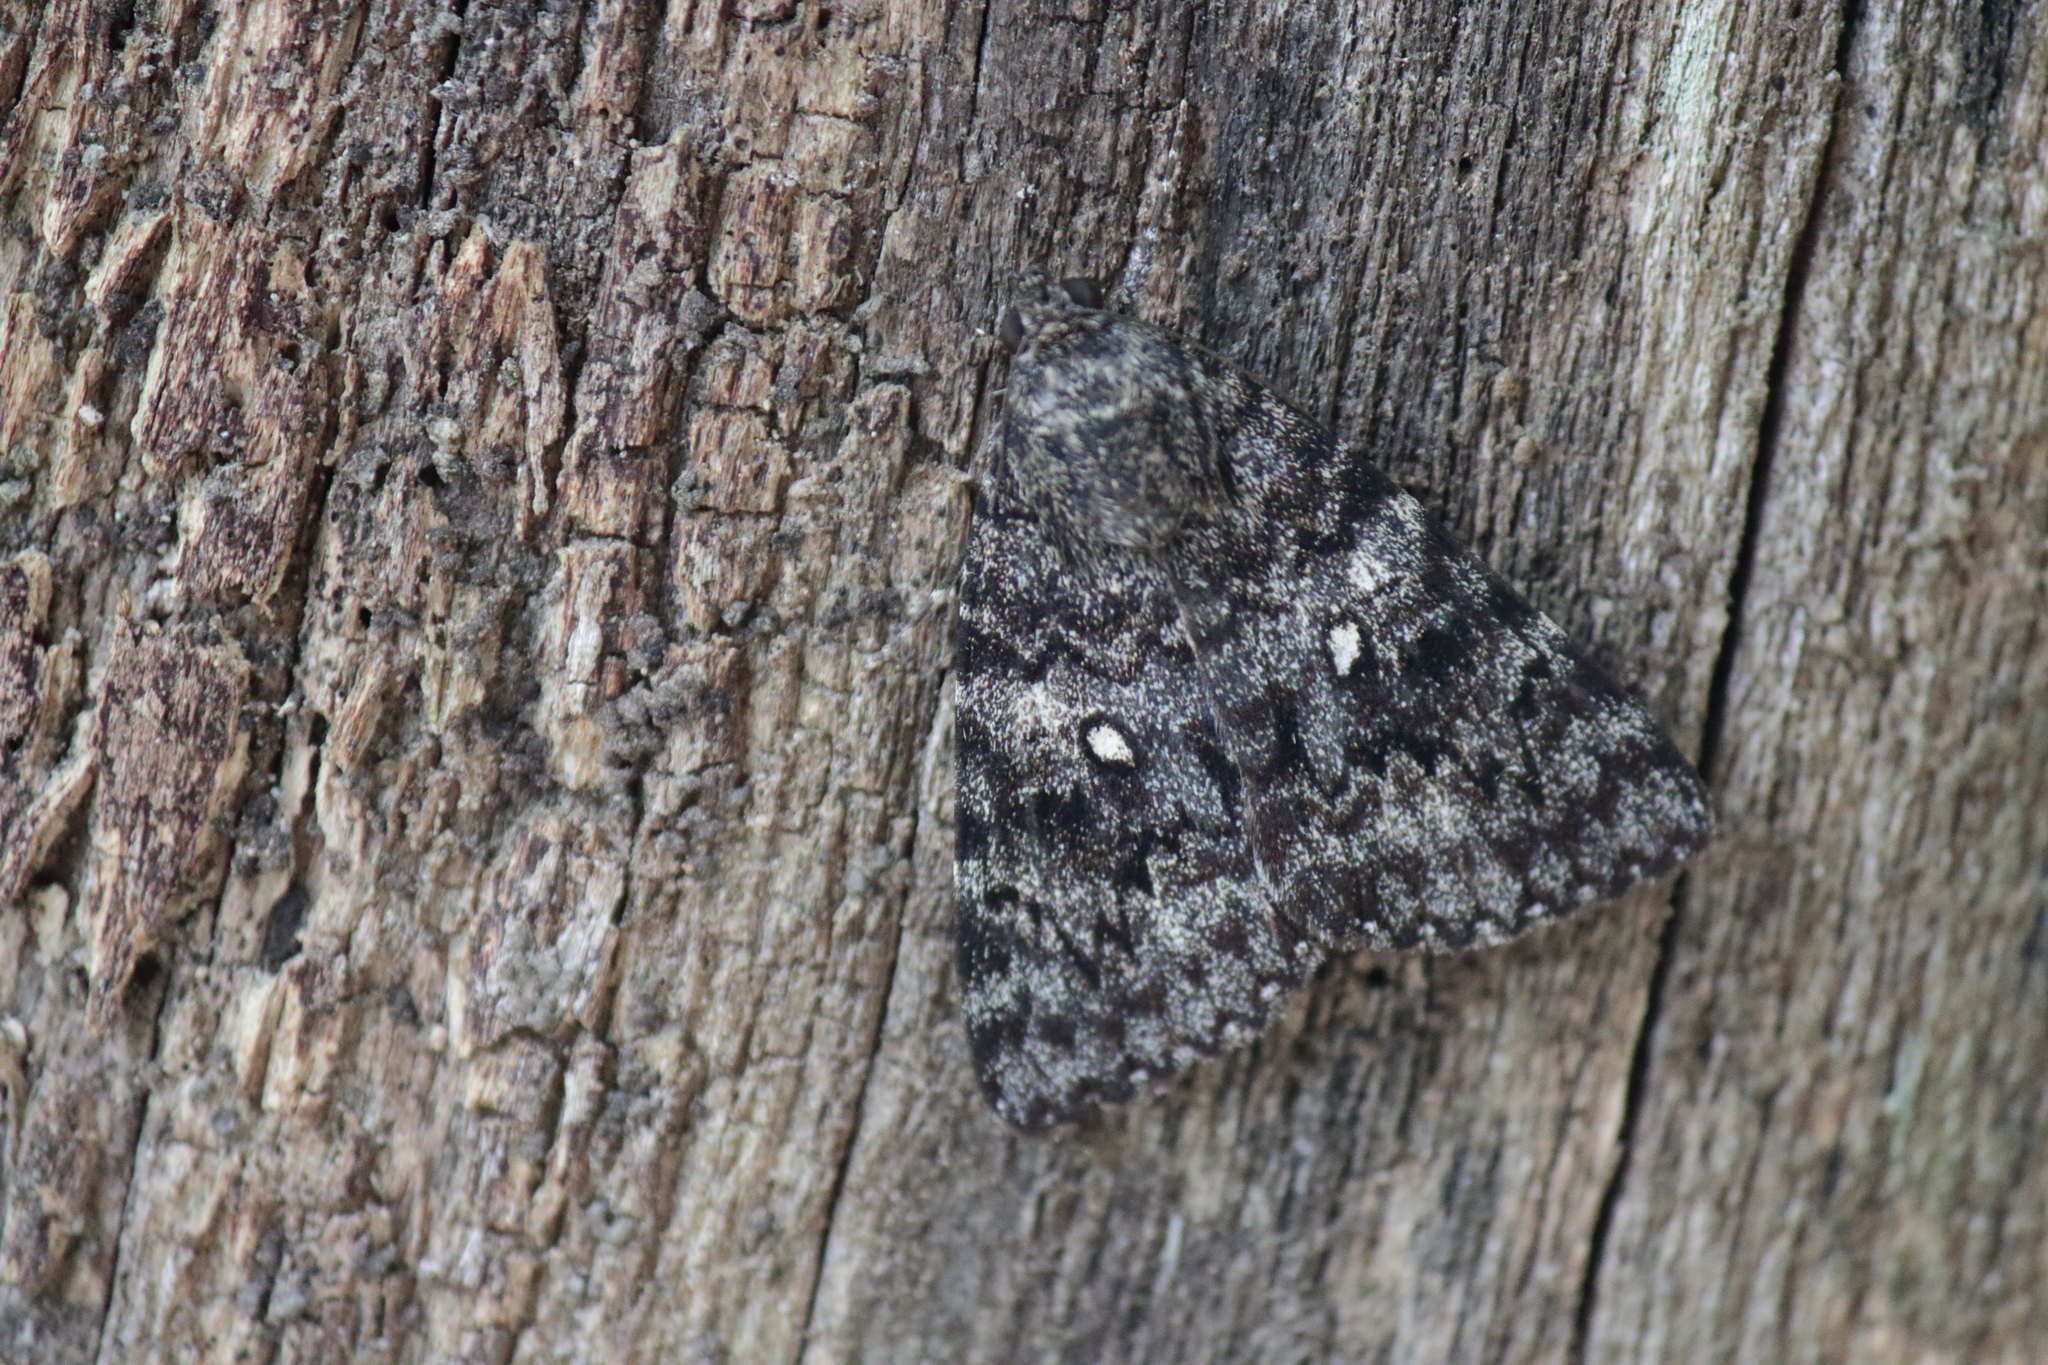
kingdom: Animalia
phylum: Arthropoda
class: Insecta
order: Lepidoptera
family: Erebidae
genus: Catocala
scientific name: Catocala actaea
